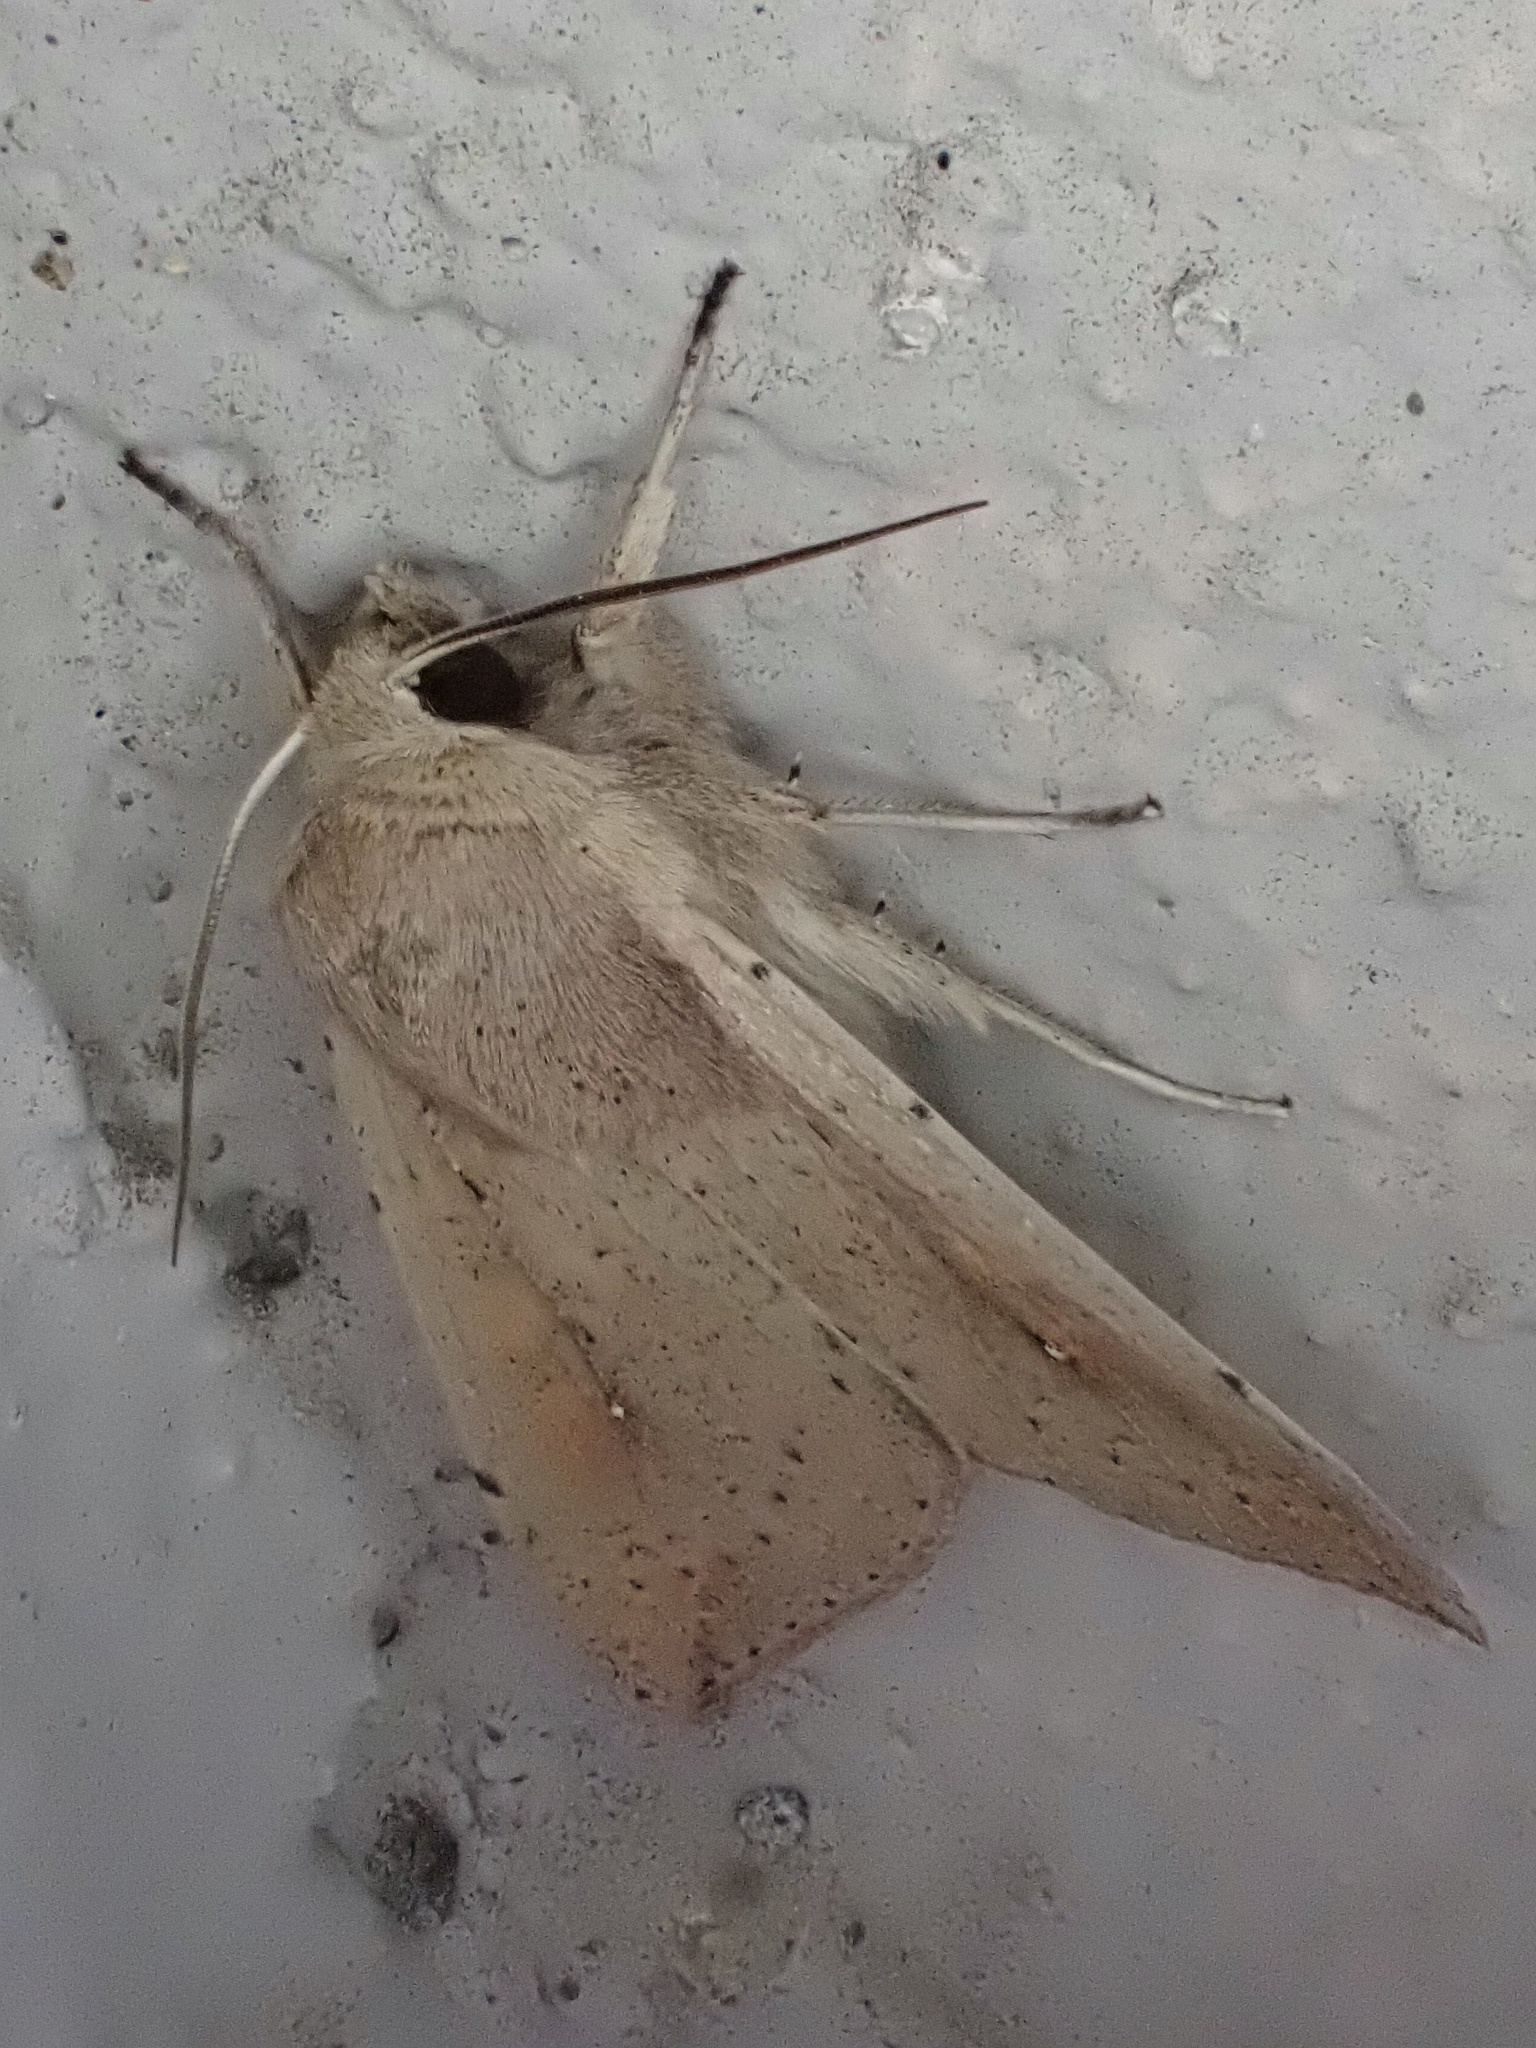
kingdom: Animalia
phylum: Arthropoda
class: Insecta
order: Lepidoptera
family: Noctuidae
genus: Mythimna
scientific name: Mythimna unipuncta
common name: White-speck
